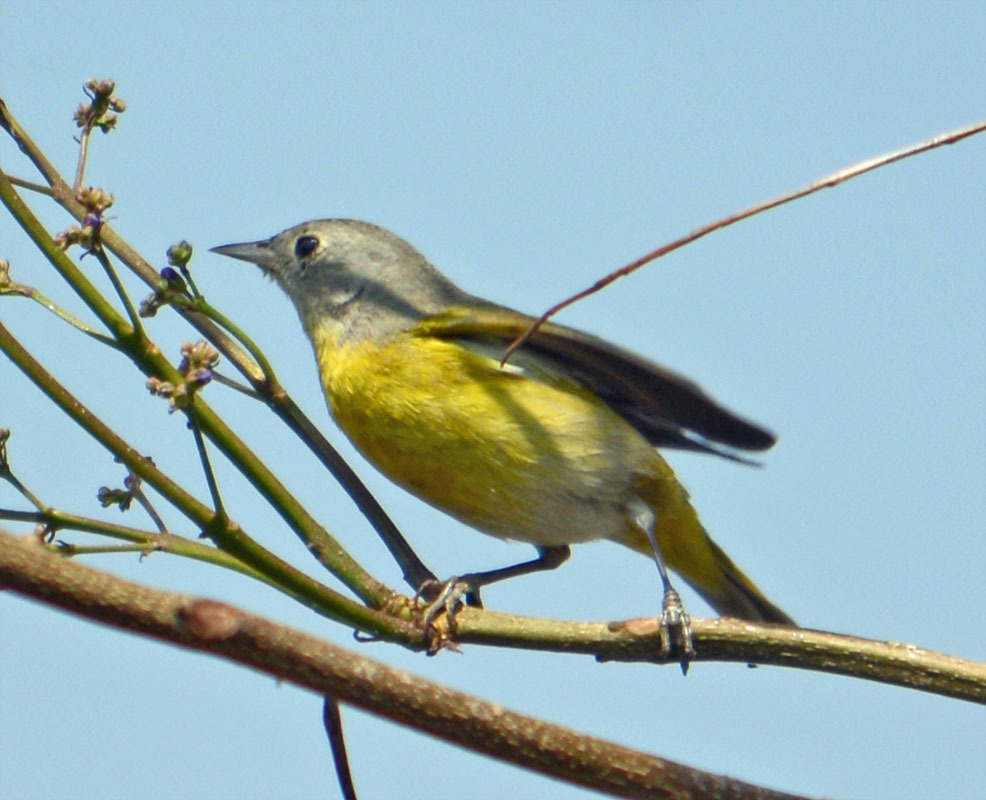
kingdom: Animalia
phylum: Chordata
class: Aves
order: Passeriformes
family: Parulidae
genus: Leiothlypis
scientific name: Leiothlypis ruficapilla
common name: Nashville warbler
